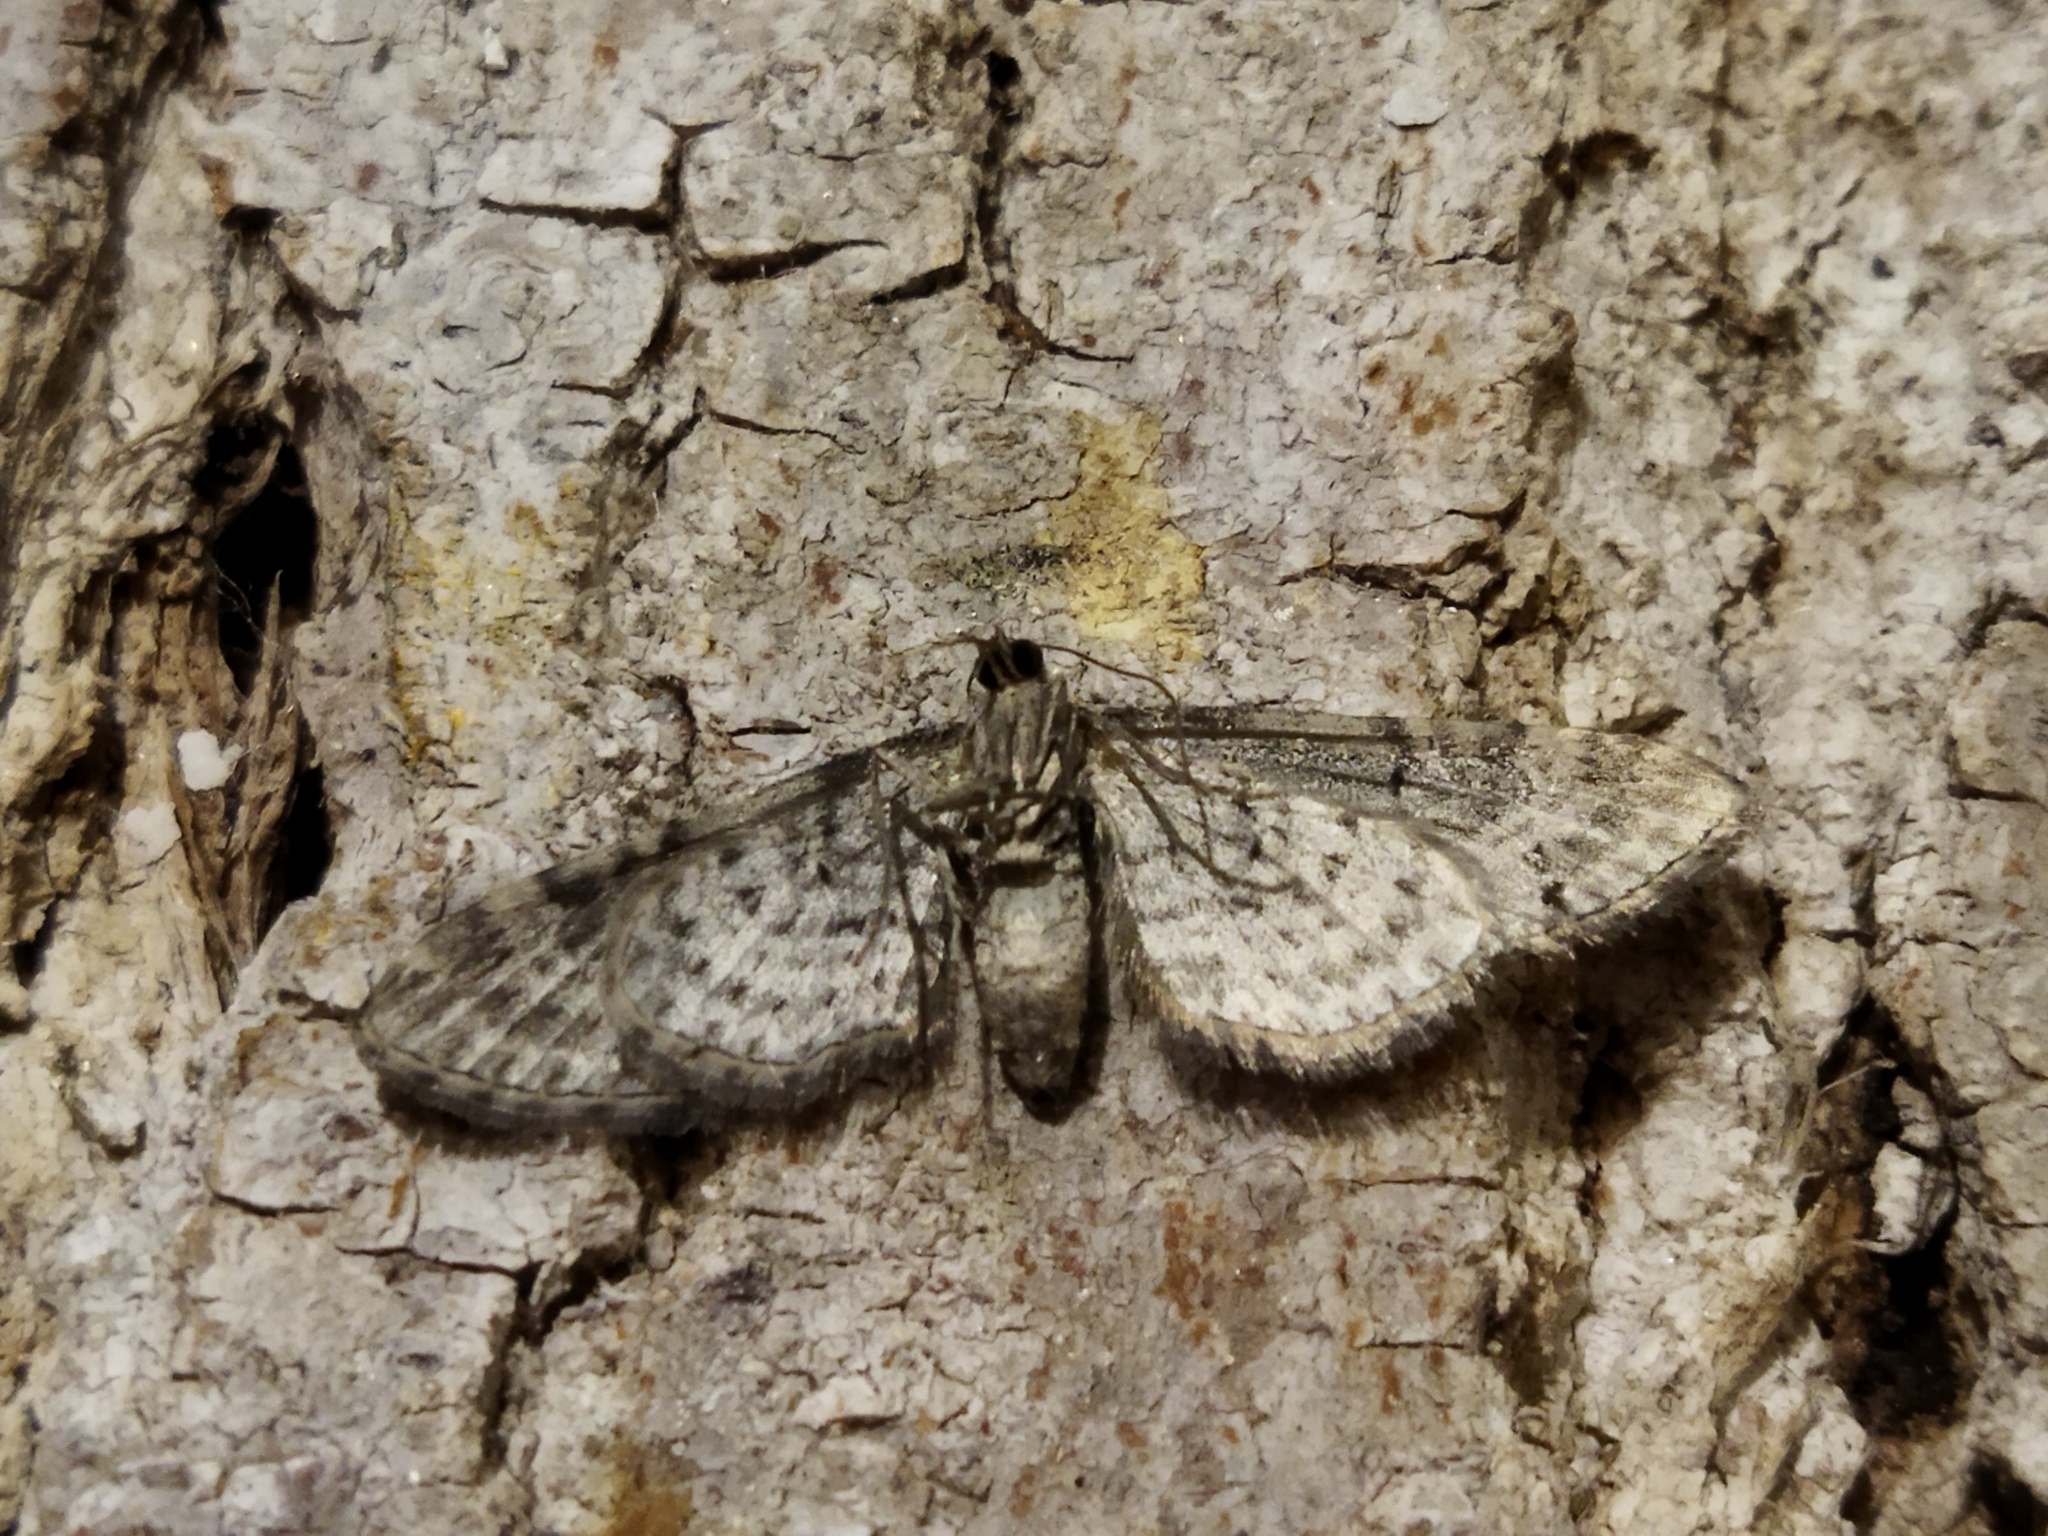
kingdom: Animalia
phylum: Arthropoda
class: Insecta
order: Lepidoptera
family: Geometridae
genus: Eupithecia
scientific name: Eupithecia innotata
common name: Angle-barred pug
